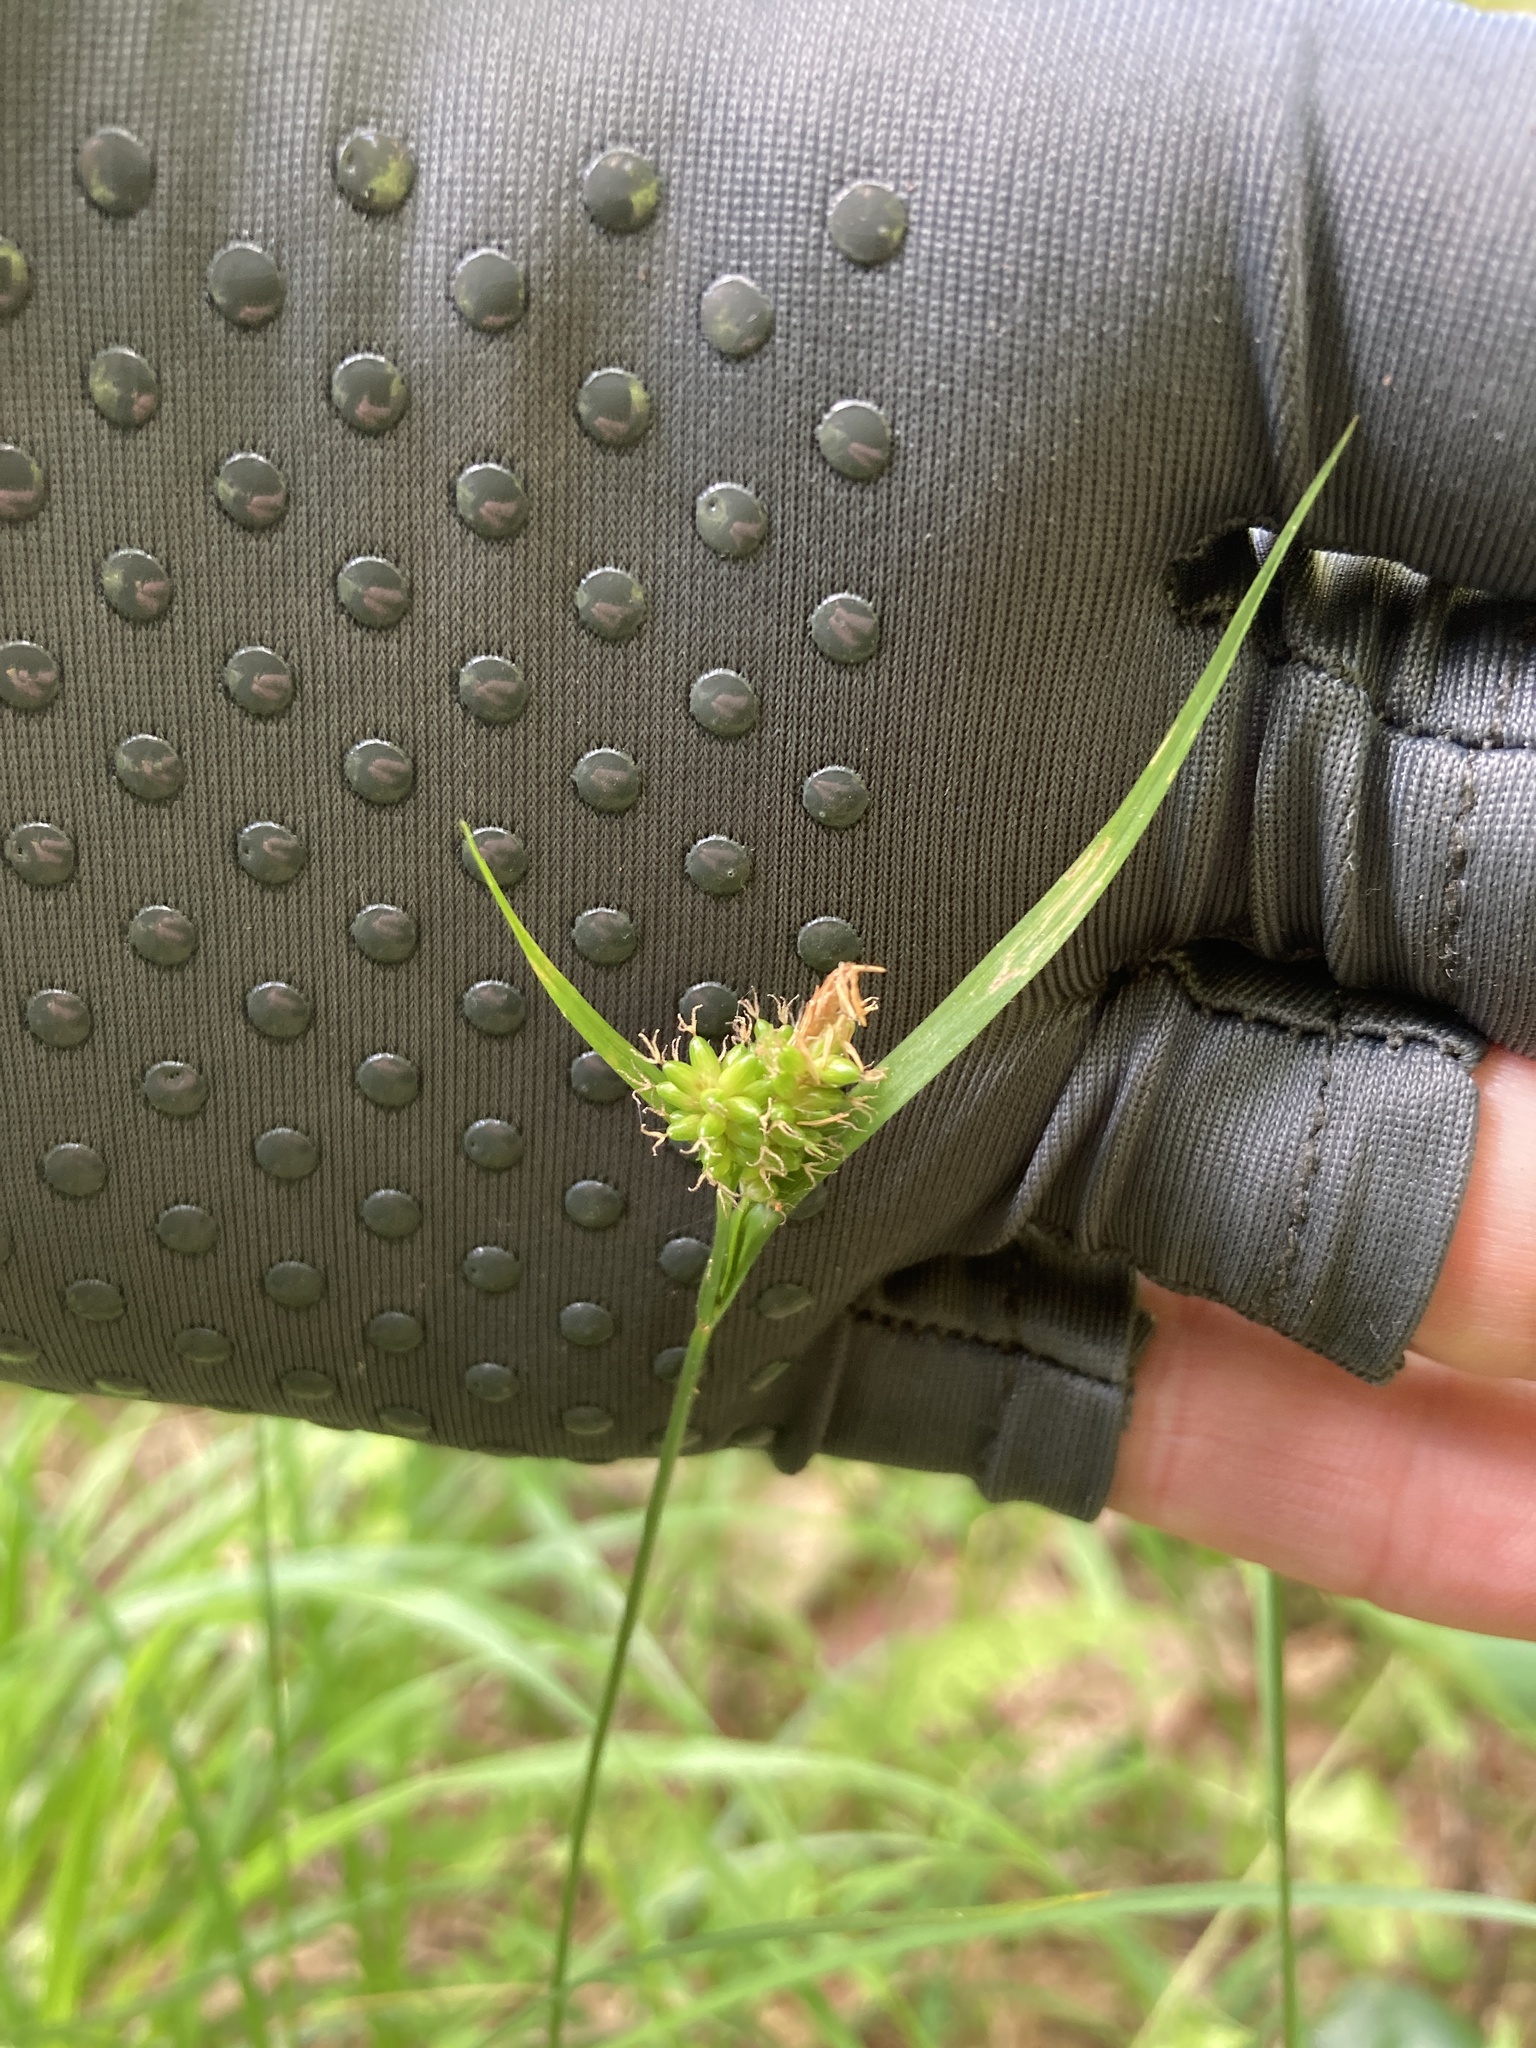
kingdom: Plantae
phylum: Tracheophyta
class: Liliopsida
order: Poales
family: Cyperaceae
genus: Carex
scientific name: Carex pallescens
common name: Pale sedge
